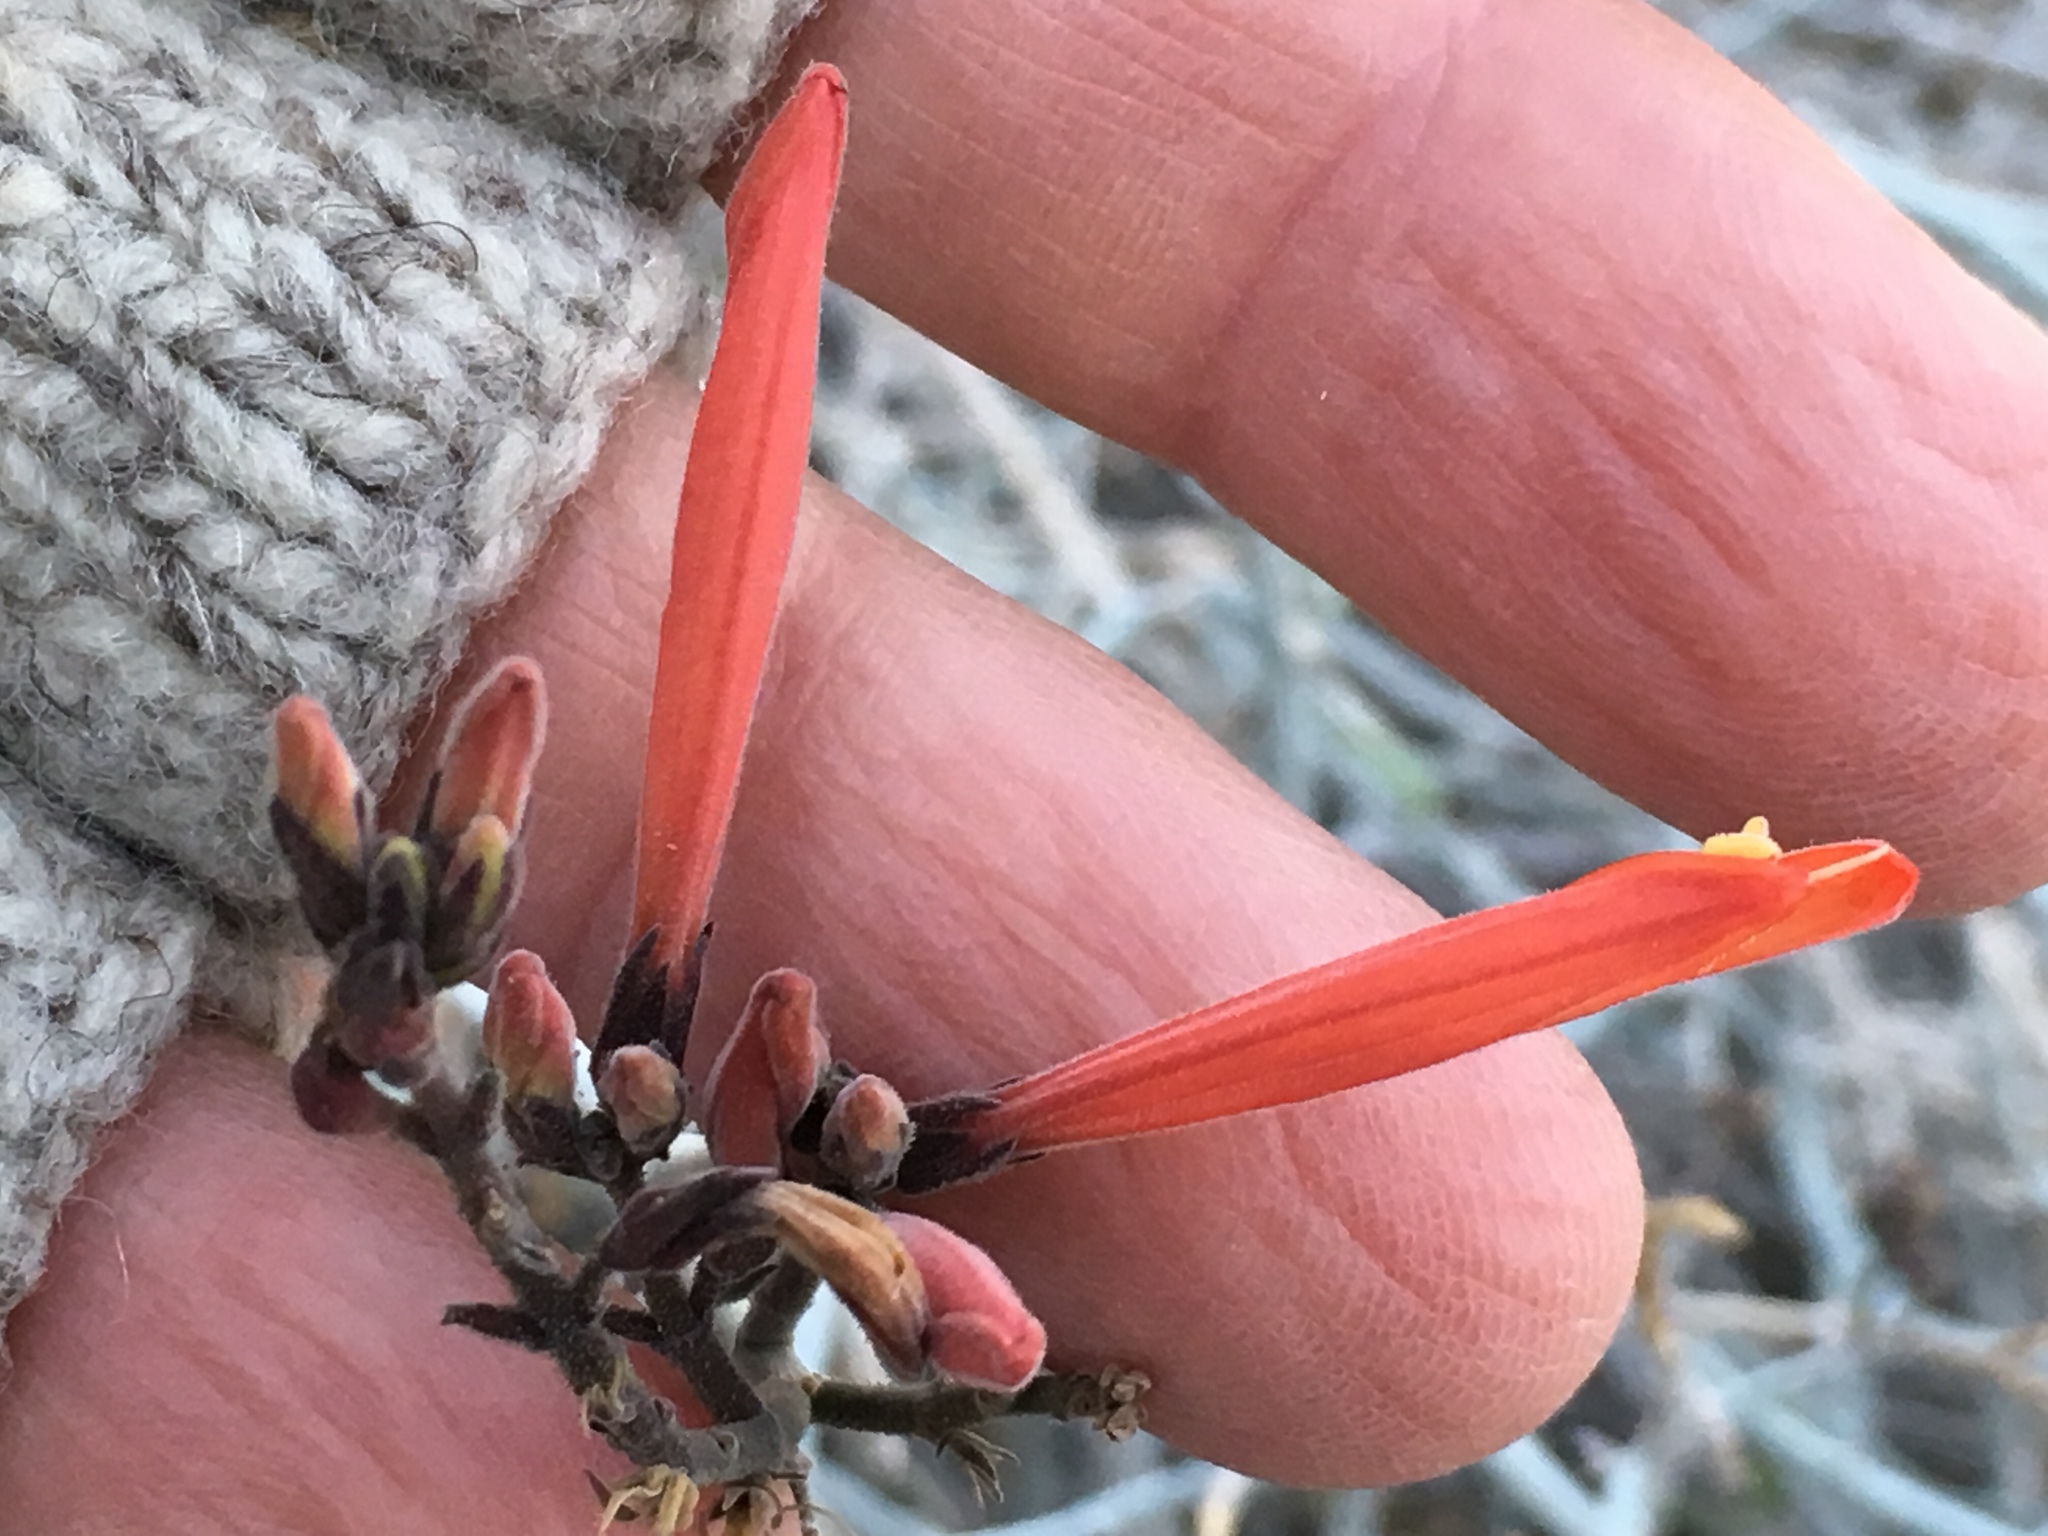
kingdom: Plantae
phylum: Tracheophyta
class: Magnoliopsida
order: Lamiales
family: Acanthaceae
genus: Justicia
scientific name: Justicia californica
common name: Chuparosa-honeysuckle
